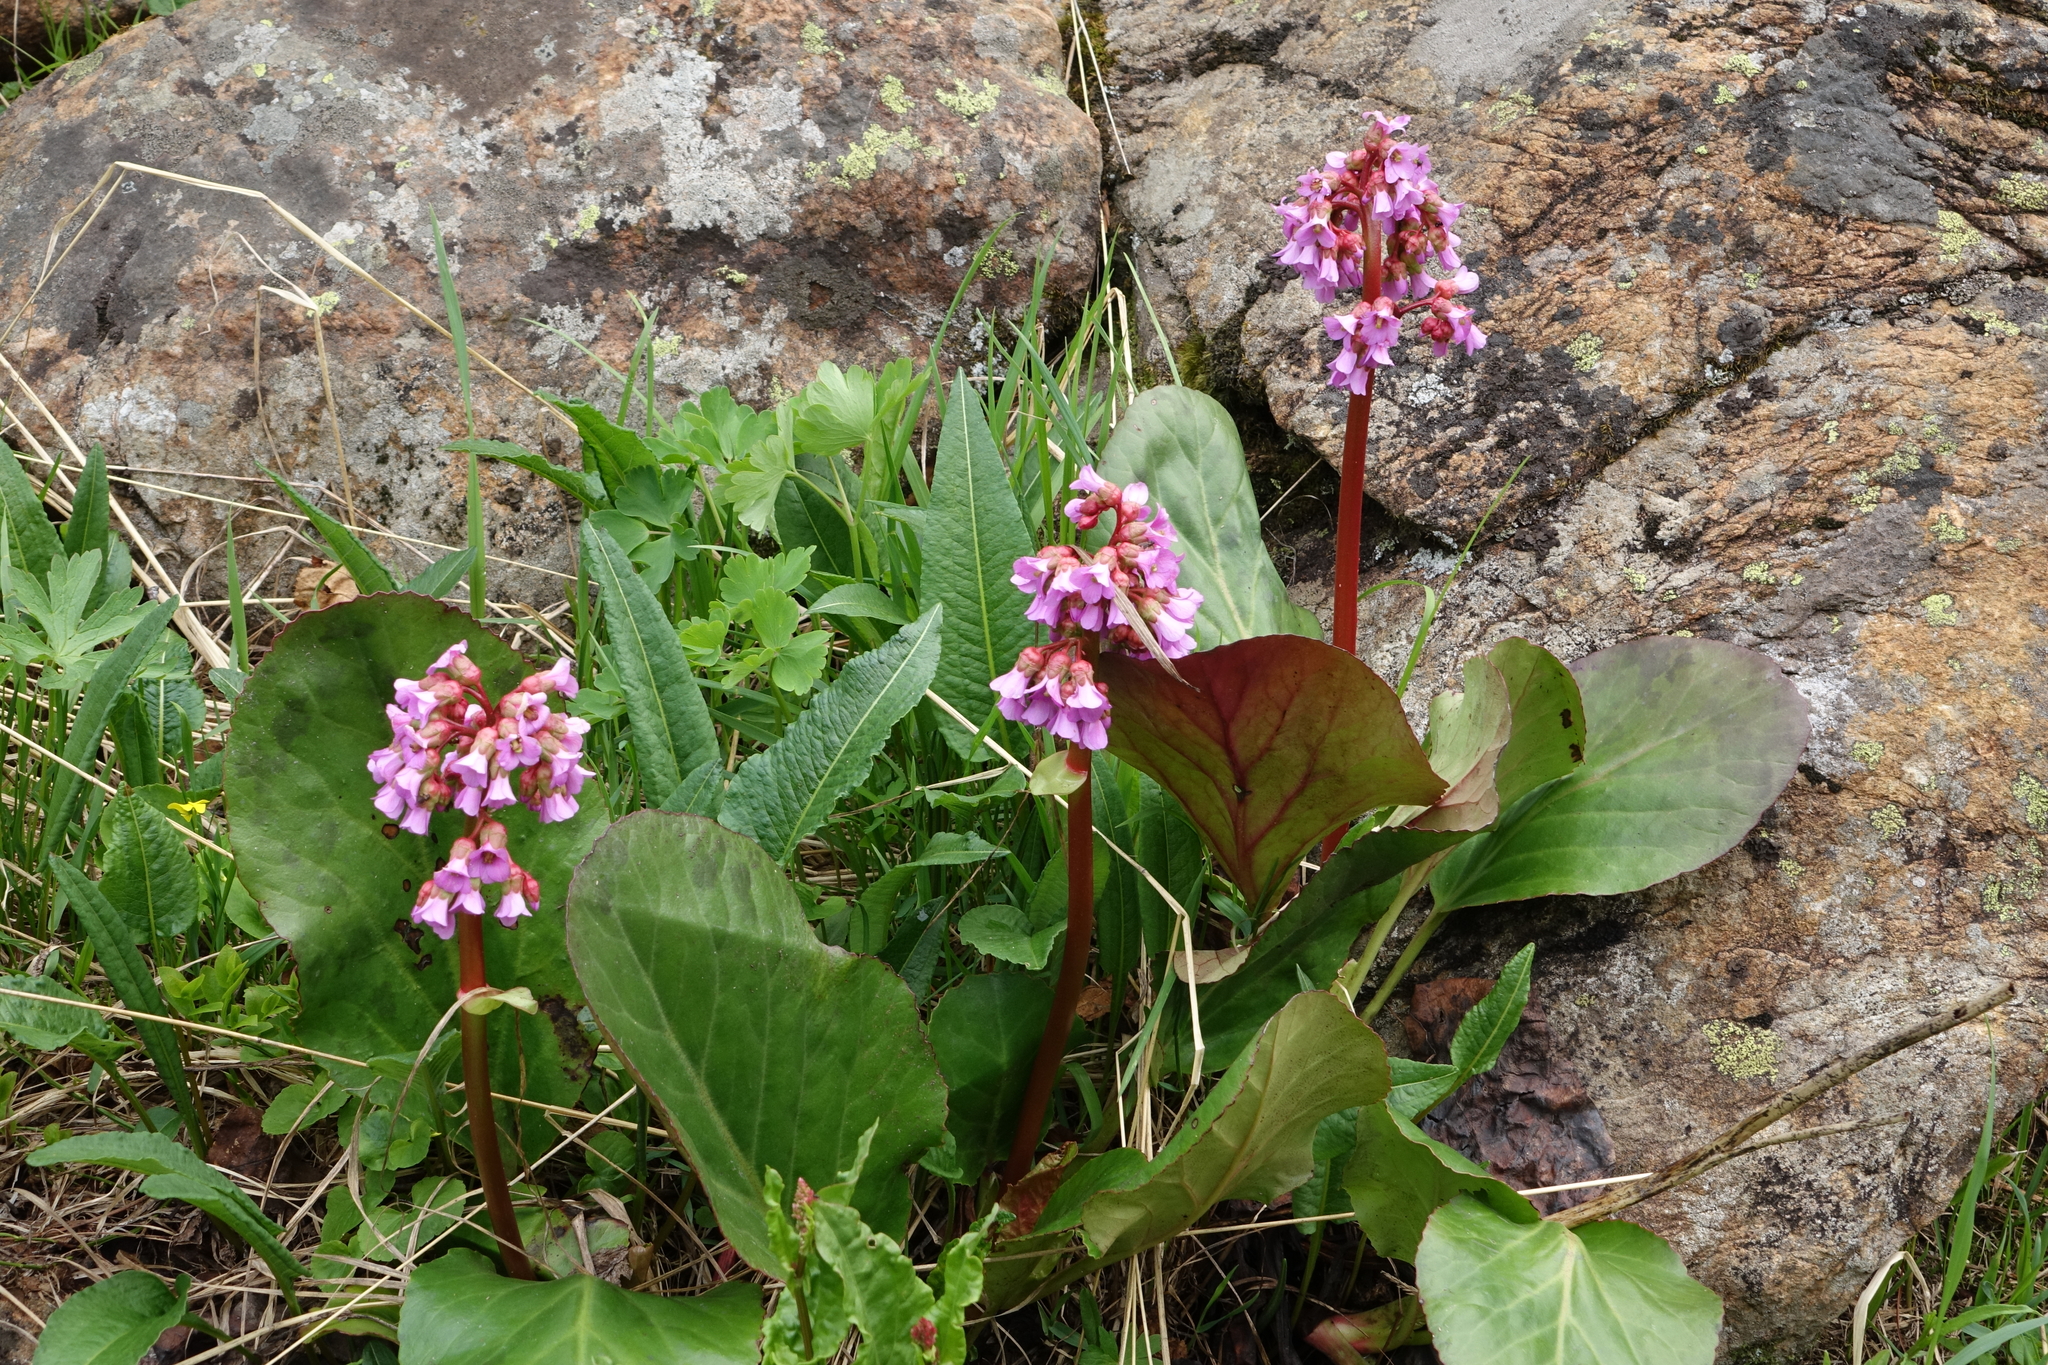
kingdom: Plantae
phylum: Tracheophyta
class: Magnoliopsida
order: Saxifragales
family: Saxifragaceae
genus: Bergenia
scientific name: Bergenia crassifolia
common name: Elephant-ears
